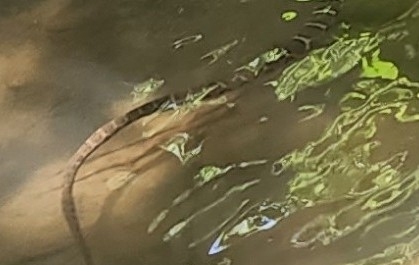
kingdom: Animalia
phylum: Chordata
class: Squamata
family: Colubridae
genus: Nerodia
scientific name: Nerodia sipedon
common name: Northern water snake
